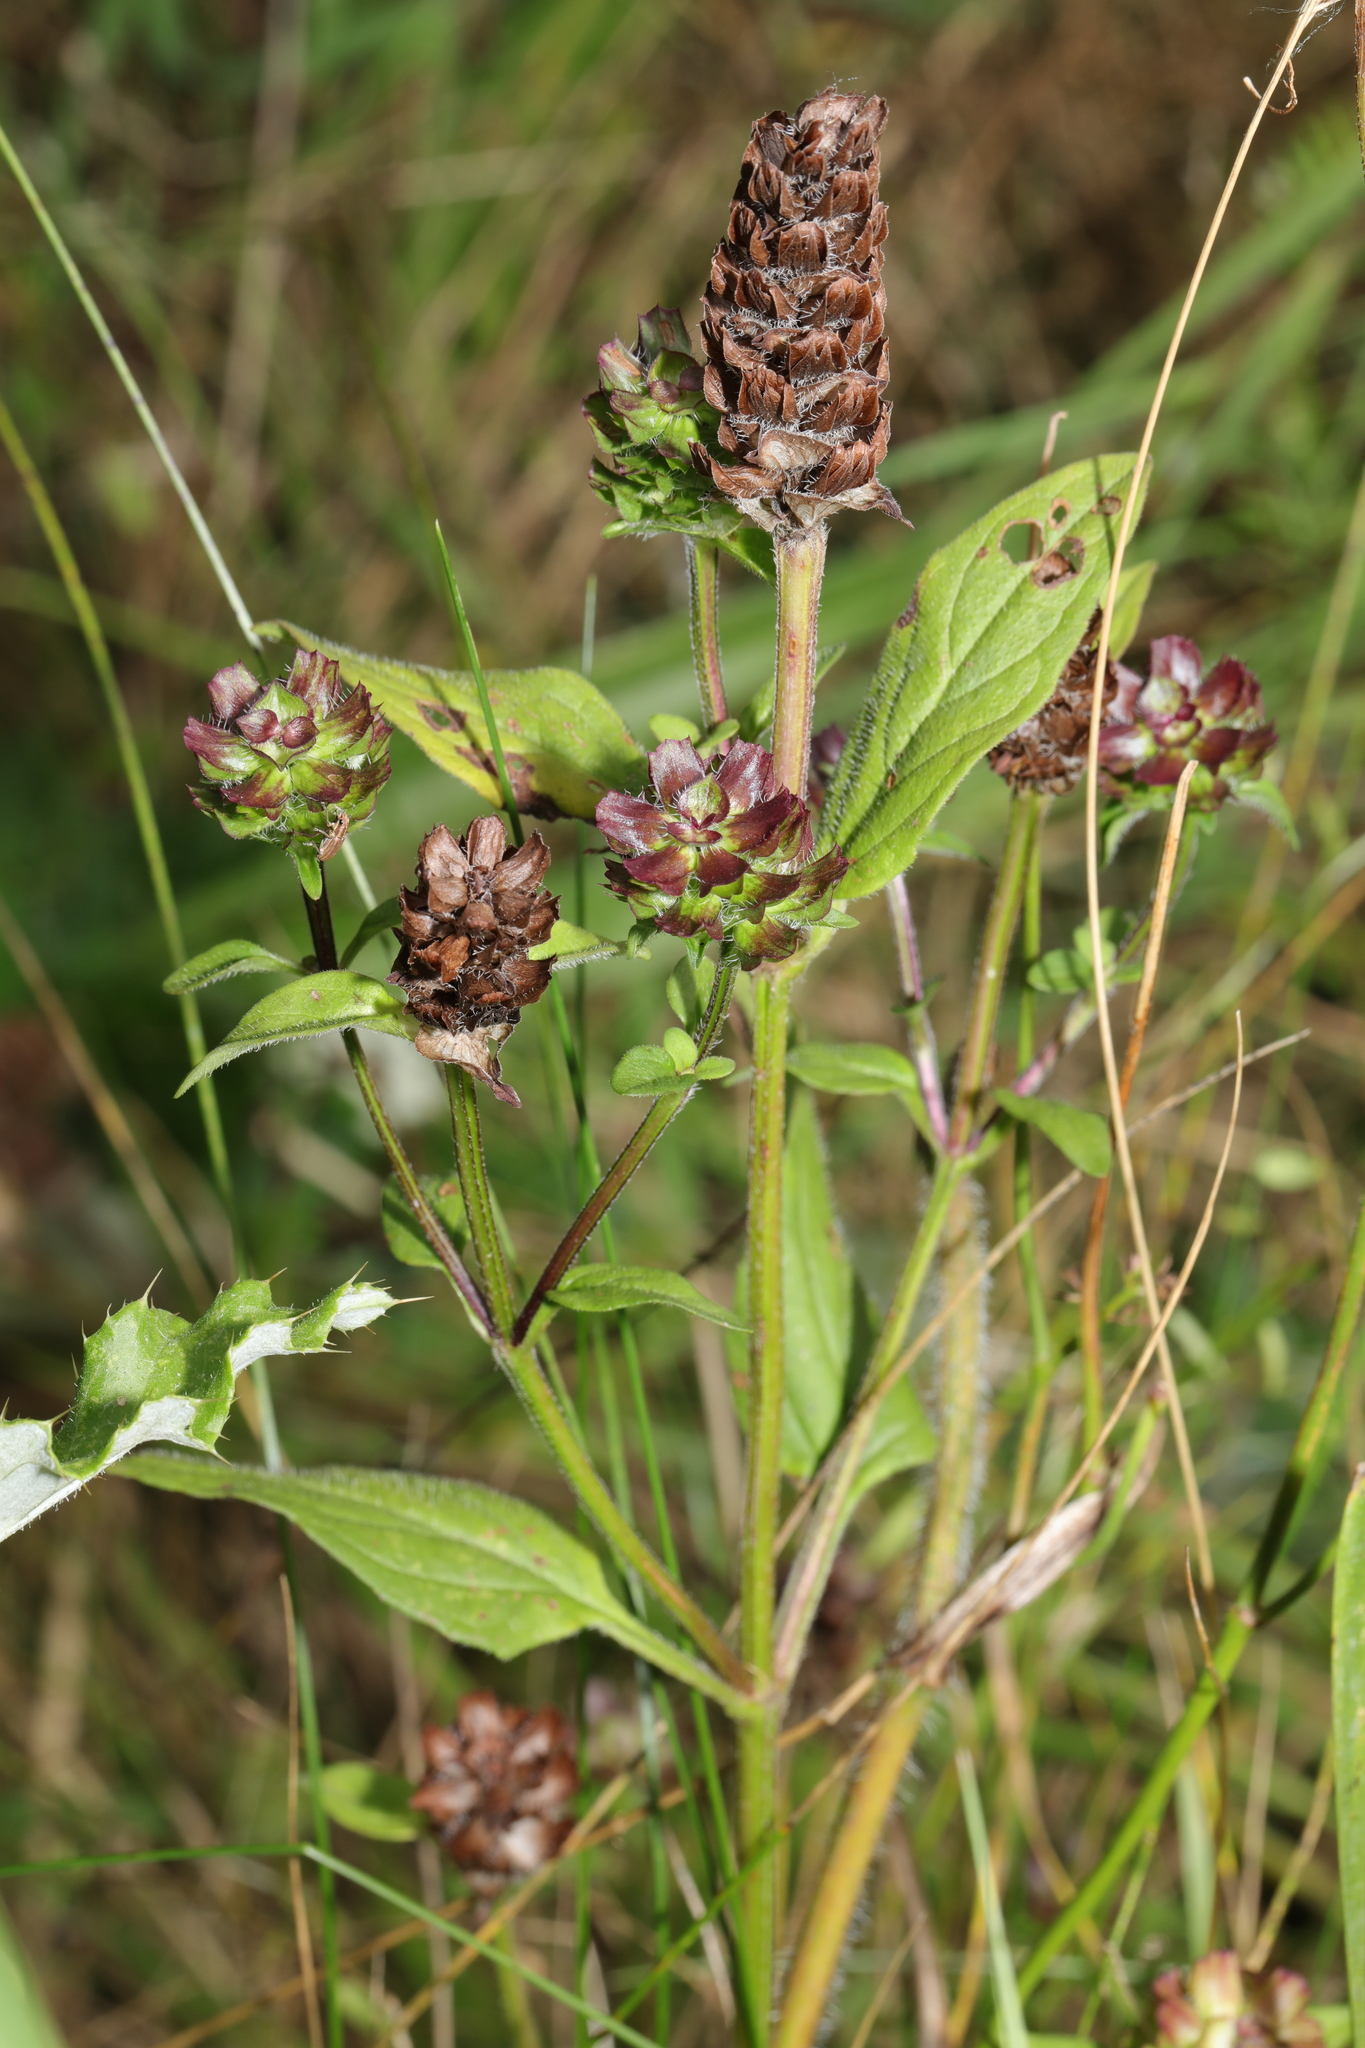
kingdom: Plantae
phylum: Tracheophyta
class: Magnoliopsida
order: Lamiales
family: Lamiaceae
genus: Prunella
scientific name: Prunella vulgaris
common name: Heal-all
